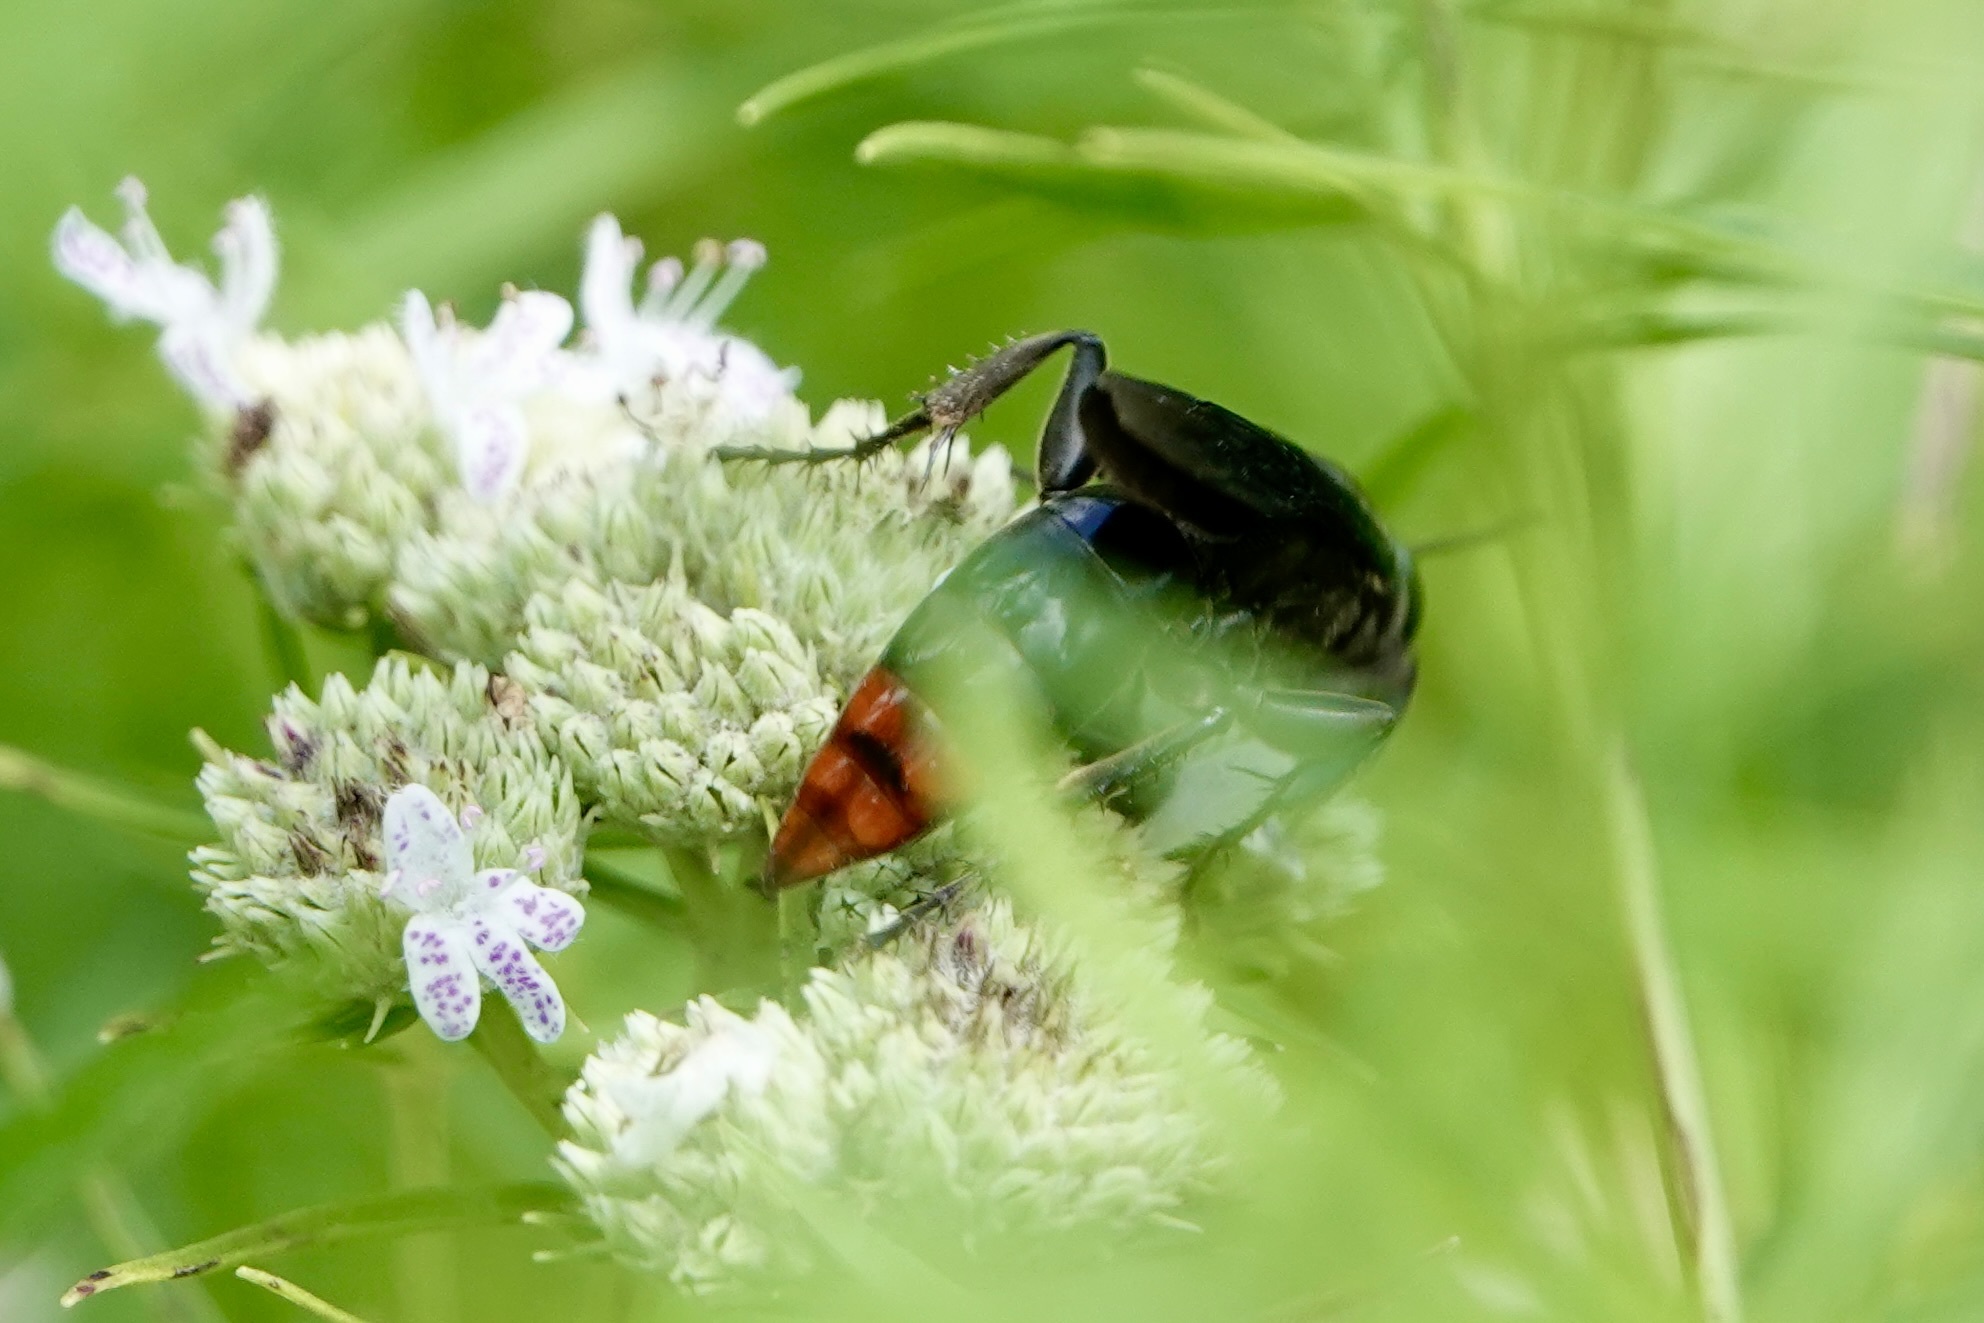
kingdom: Animalia
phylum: Arthropoda
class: Insecta
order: Hymenoptera
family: Crabronidae
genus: Larra
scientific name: Larra analis
